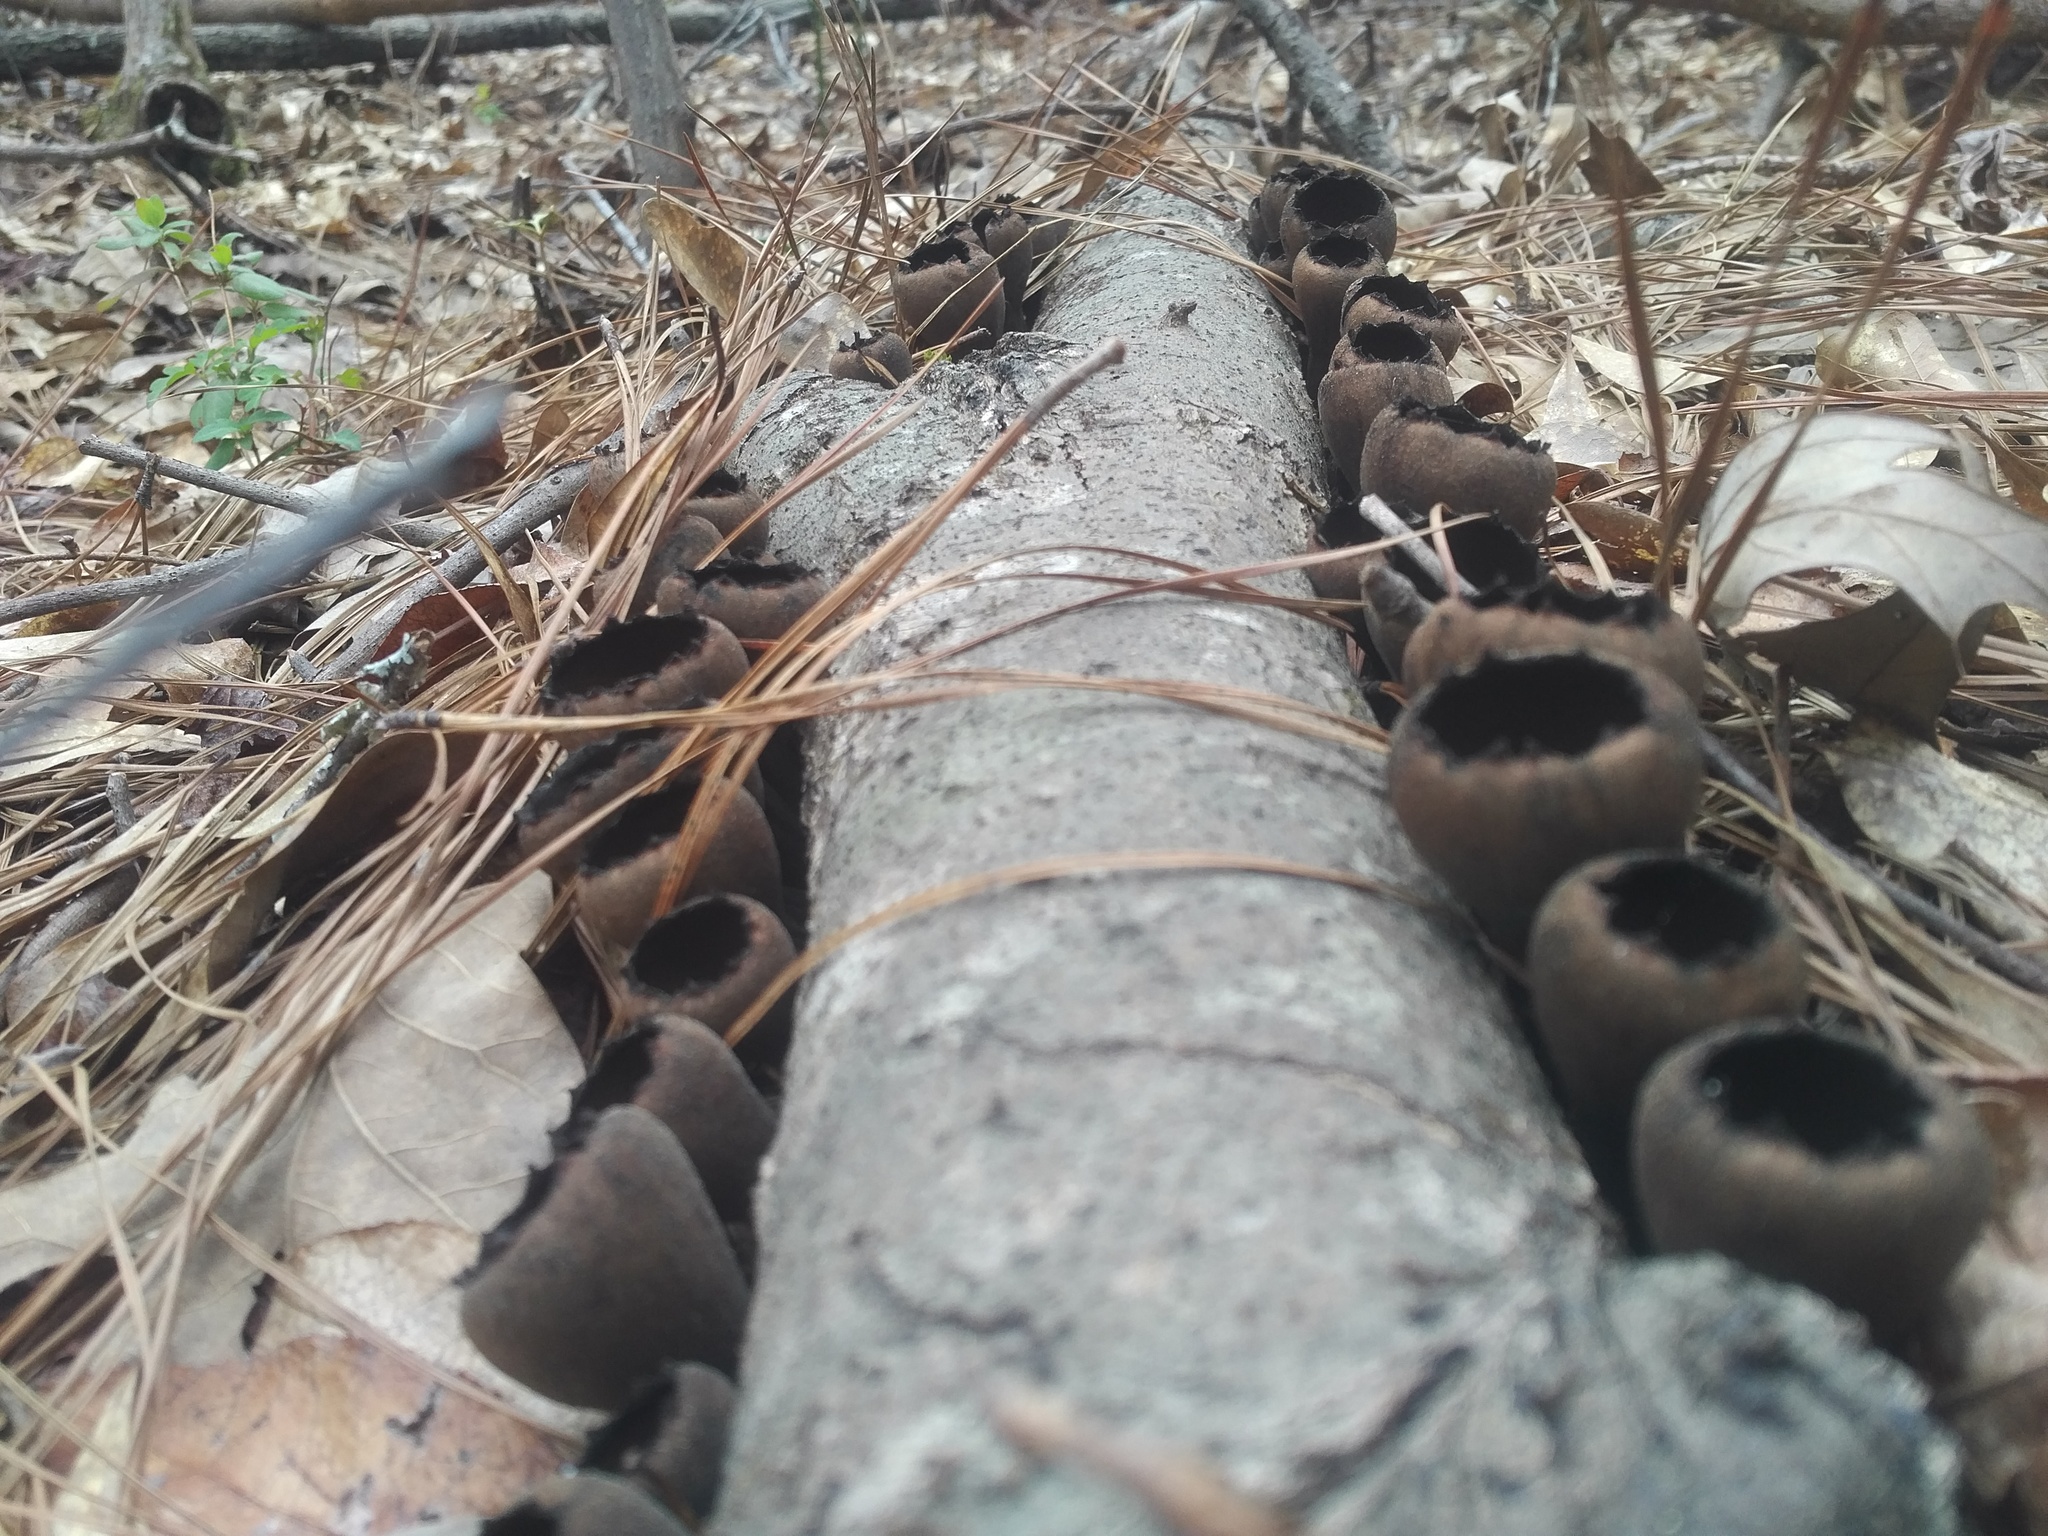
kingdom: Fungi
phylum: Ascomycota
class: Pezizomycetes
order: Pezizales
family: Sarcosomataceae
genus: Urnula
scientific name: Urnula craterium
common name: Devil's urn
